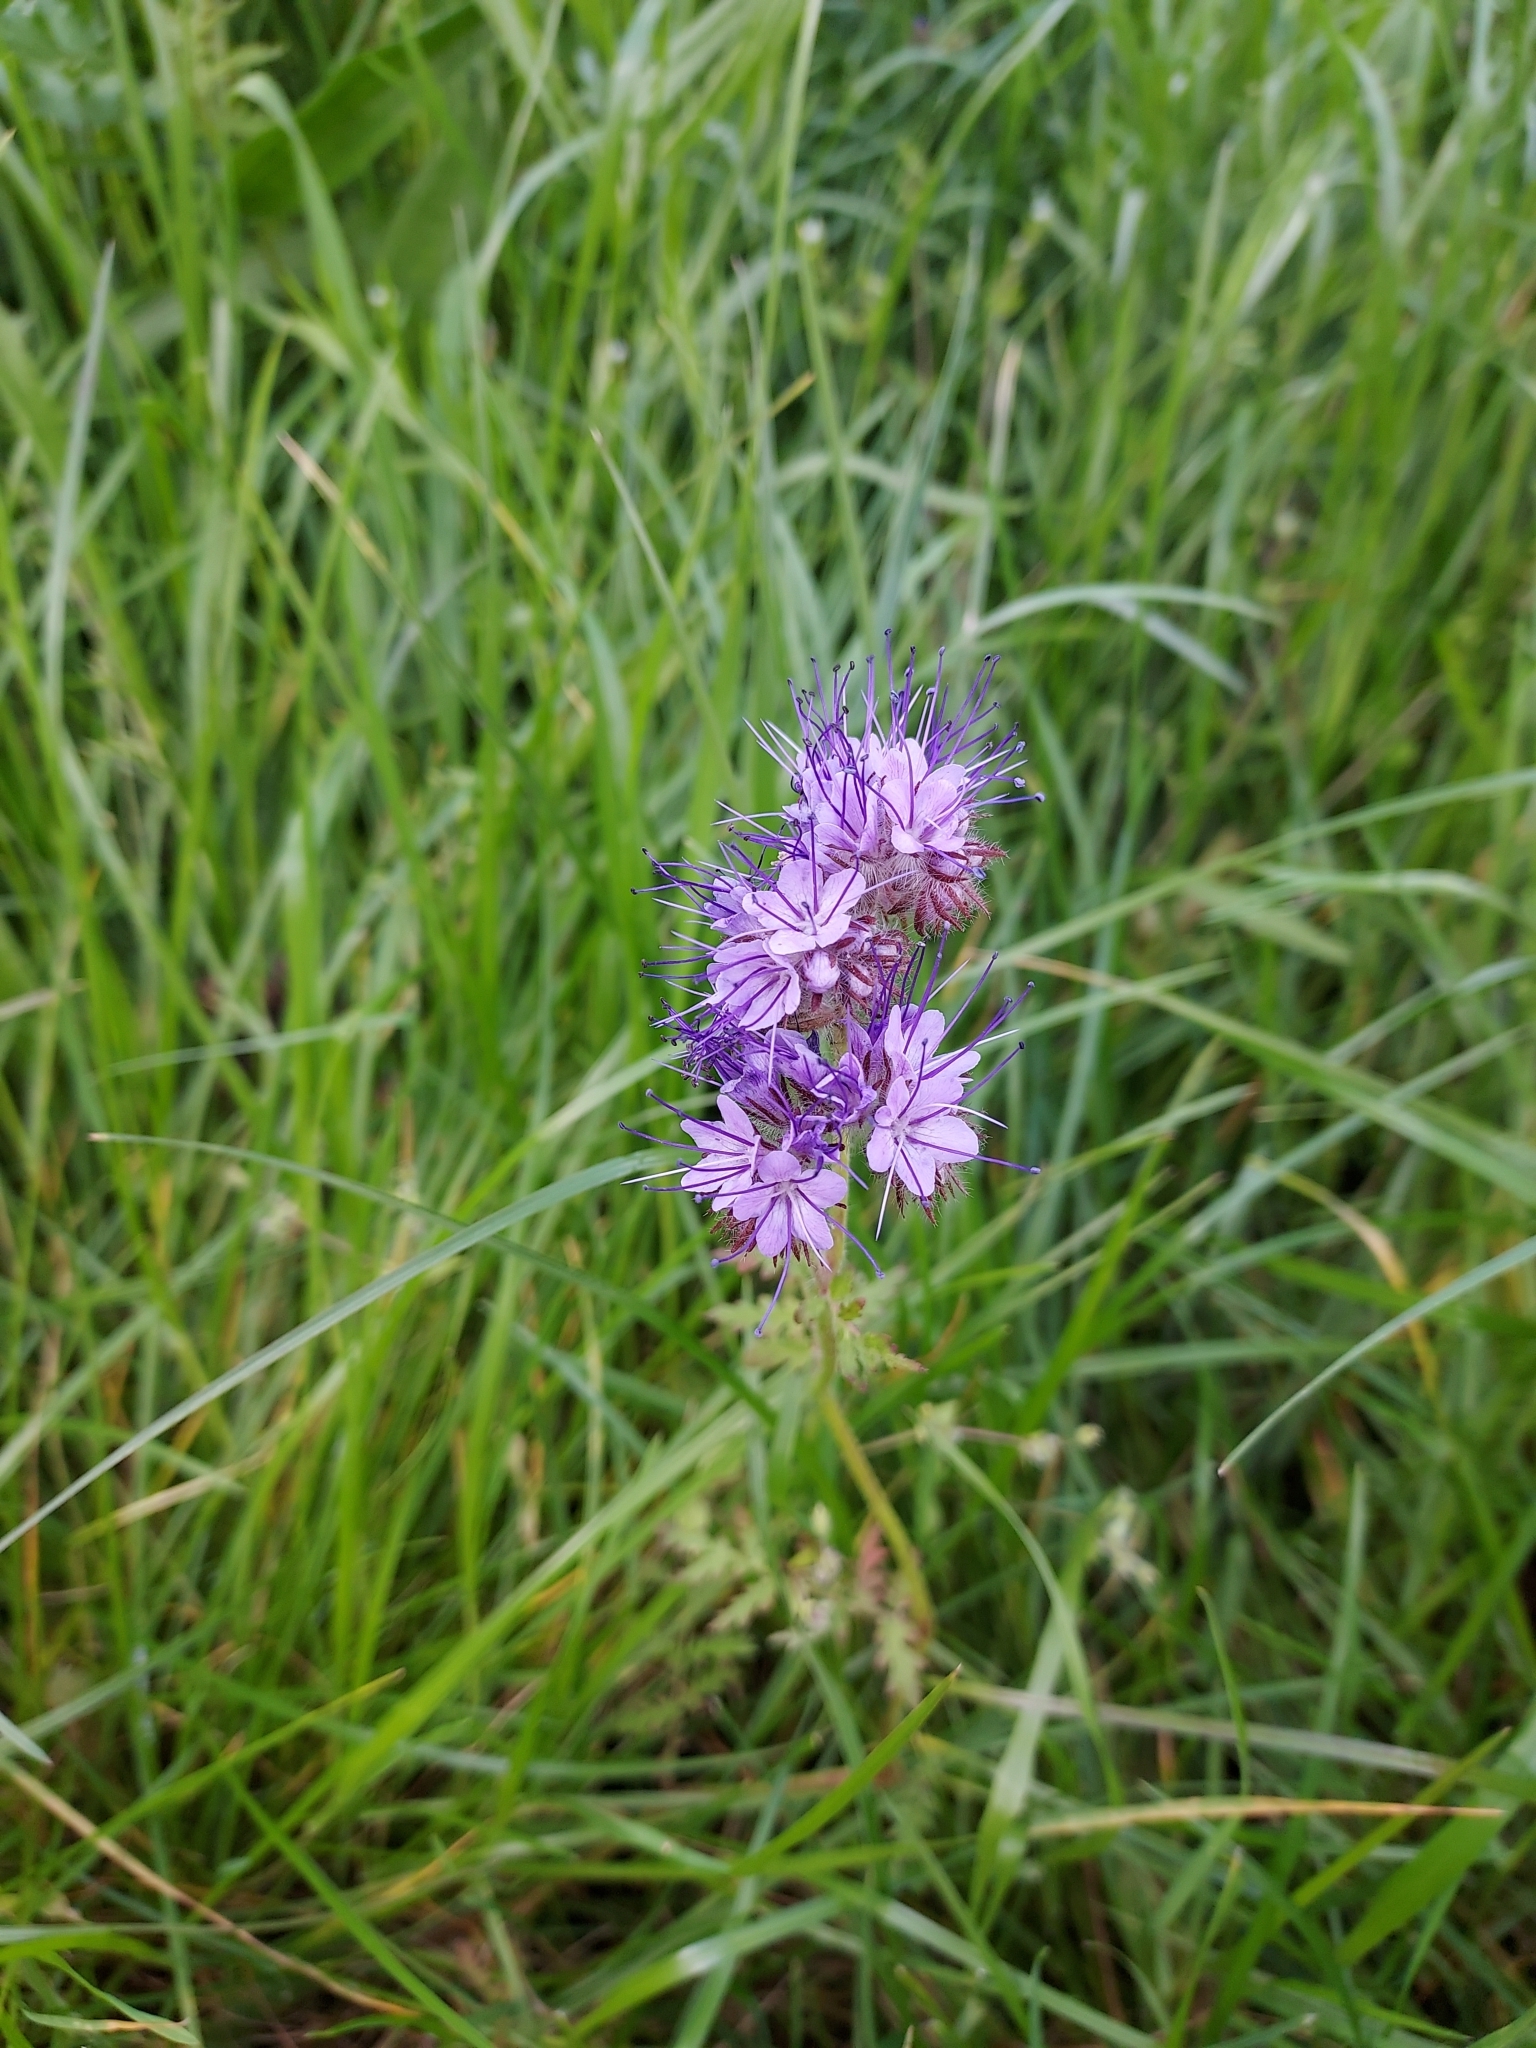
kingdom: Plantae
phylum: Tracheophyta
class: Magnoliopsida
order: Boraginales
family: Hydrophyllaceae
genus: Phacelia
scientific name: Phacelia tanacetifolia
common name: Phacelia
